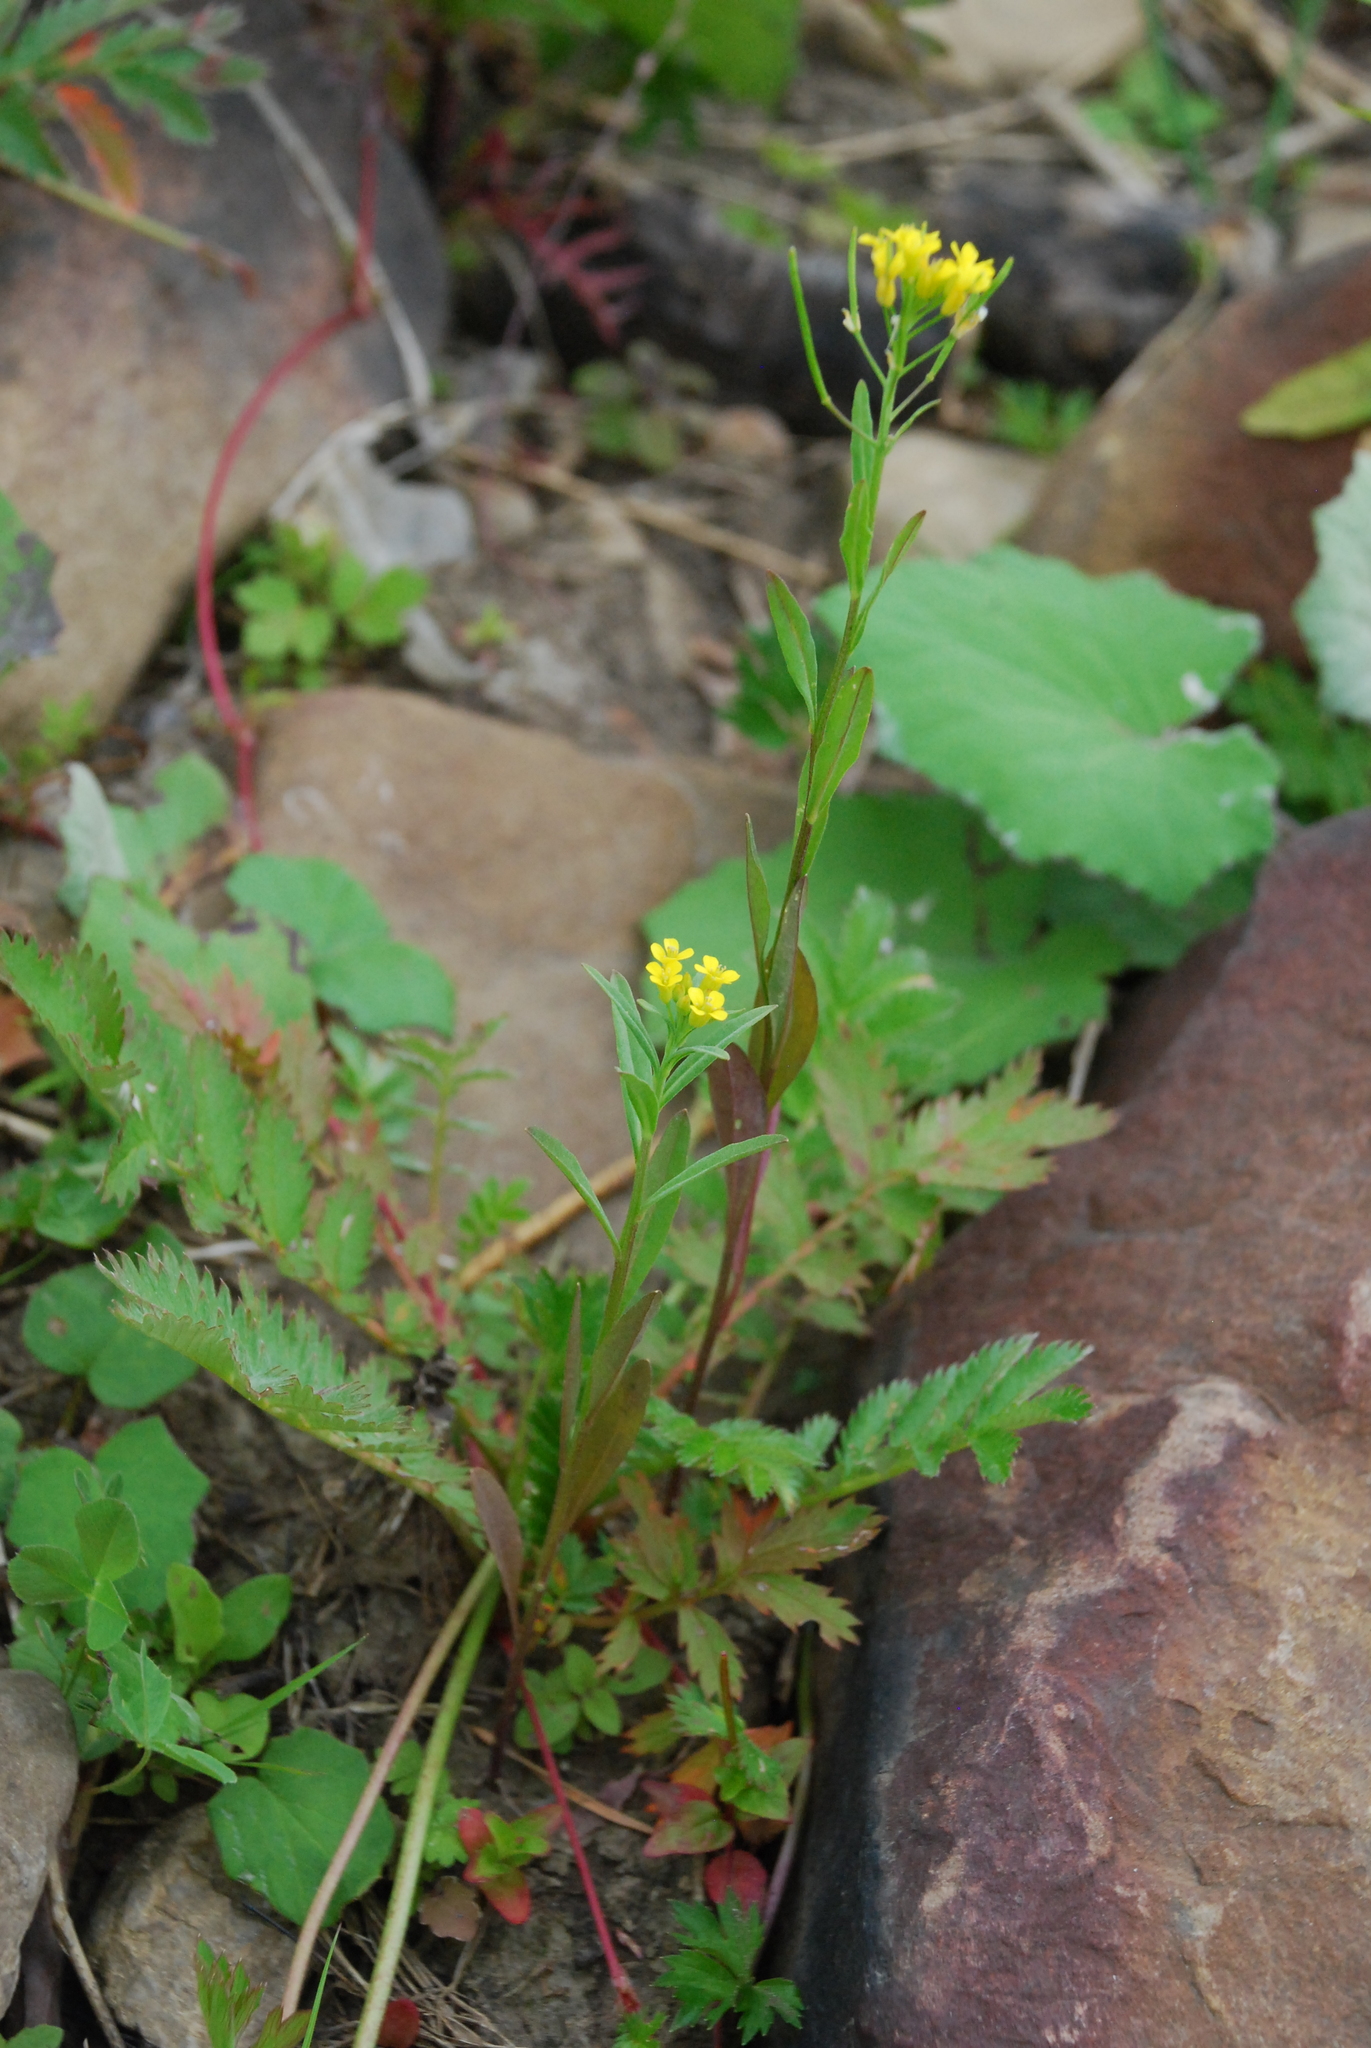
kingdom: Plantae
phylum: Tracheophyta
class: Magnoliopsida
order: Brassicales
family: Brassicaceae
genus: Erysimum
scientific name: Erysimum cheiranthoides
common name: Treacle mustard
